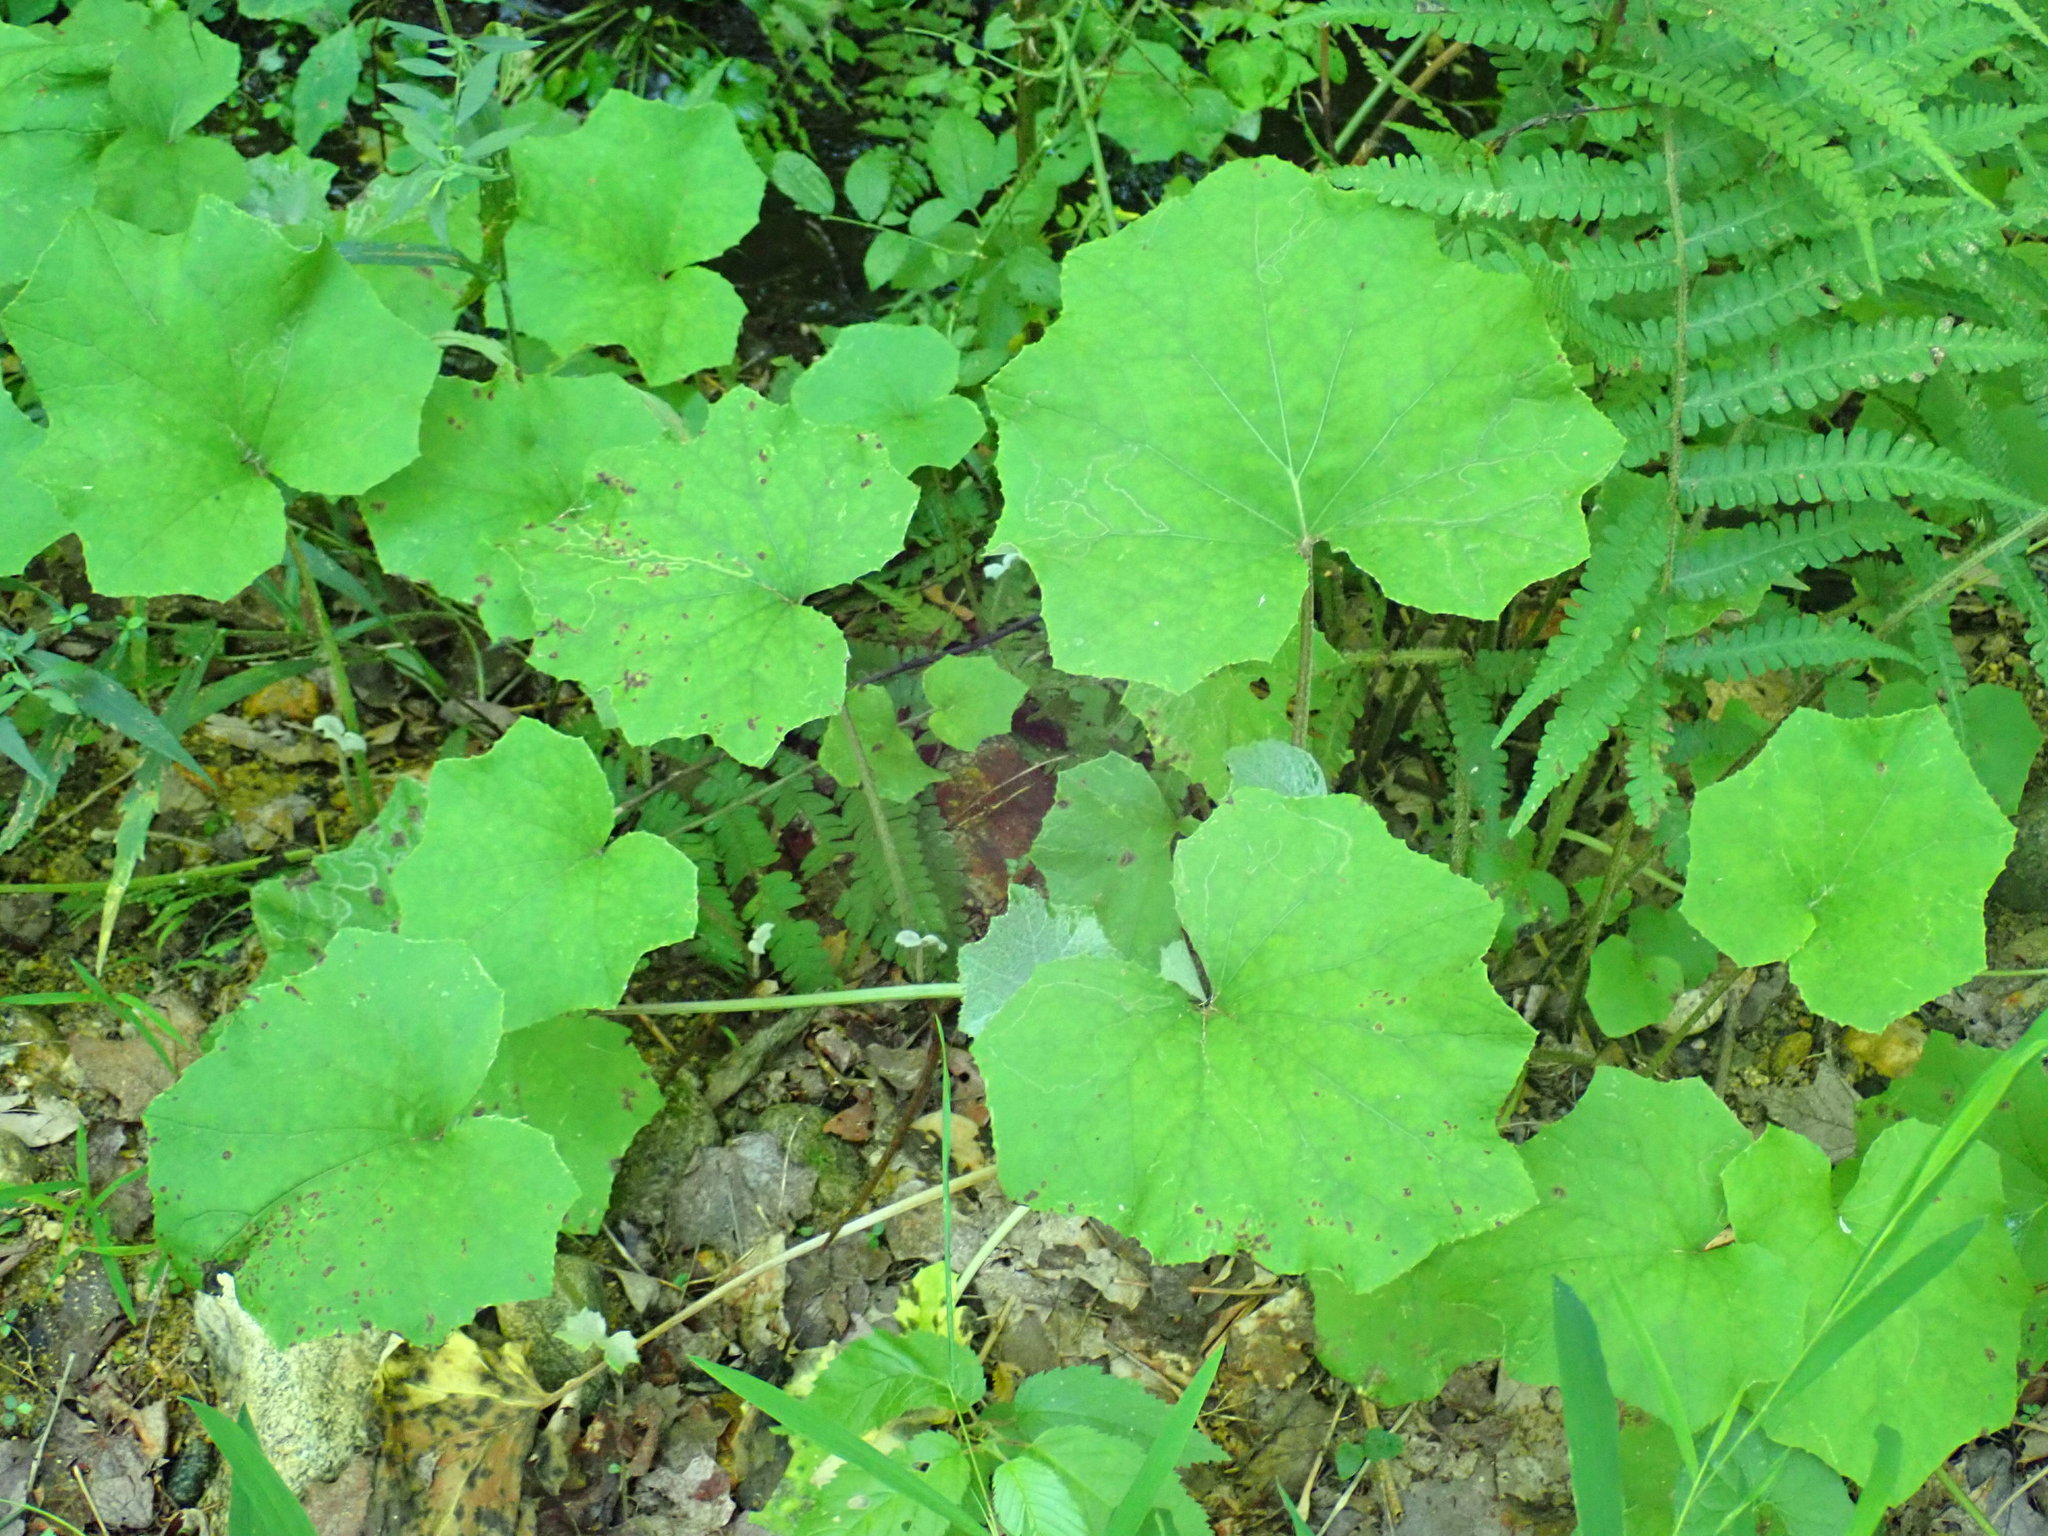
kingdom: Plantae
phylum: Tracheophyta
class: Magnoliopsida
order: Asterales
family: Asteraceae
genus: Tussilago
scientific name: Tussilago farfara
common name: Coltsfoot
